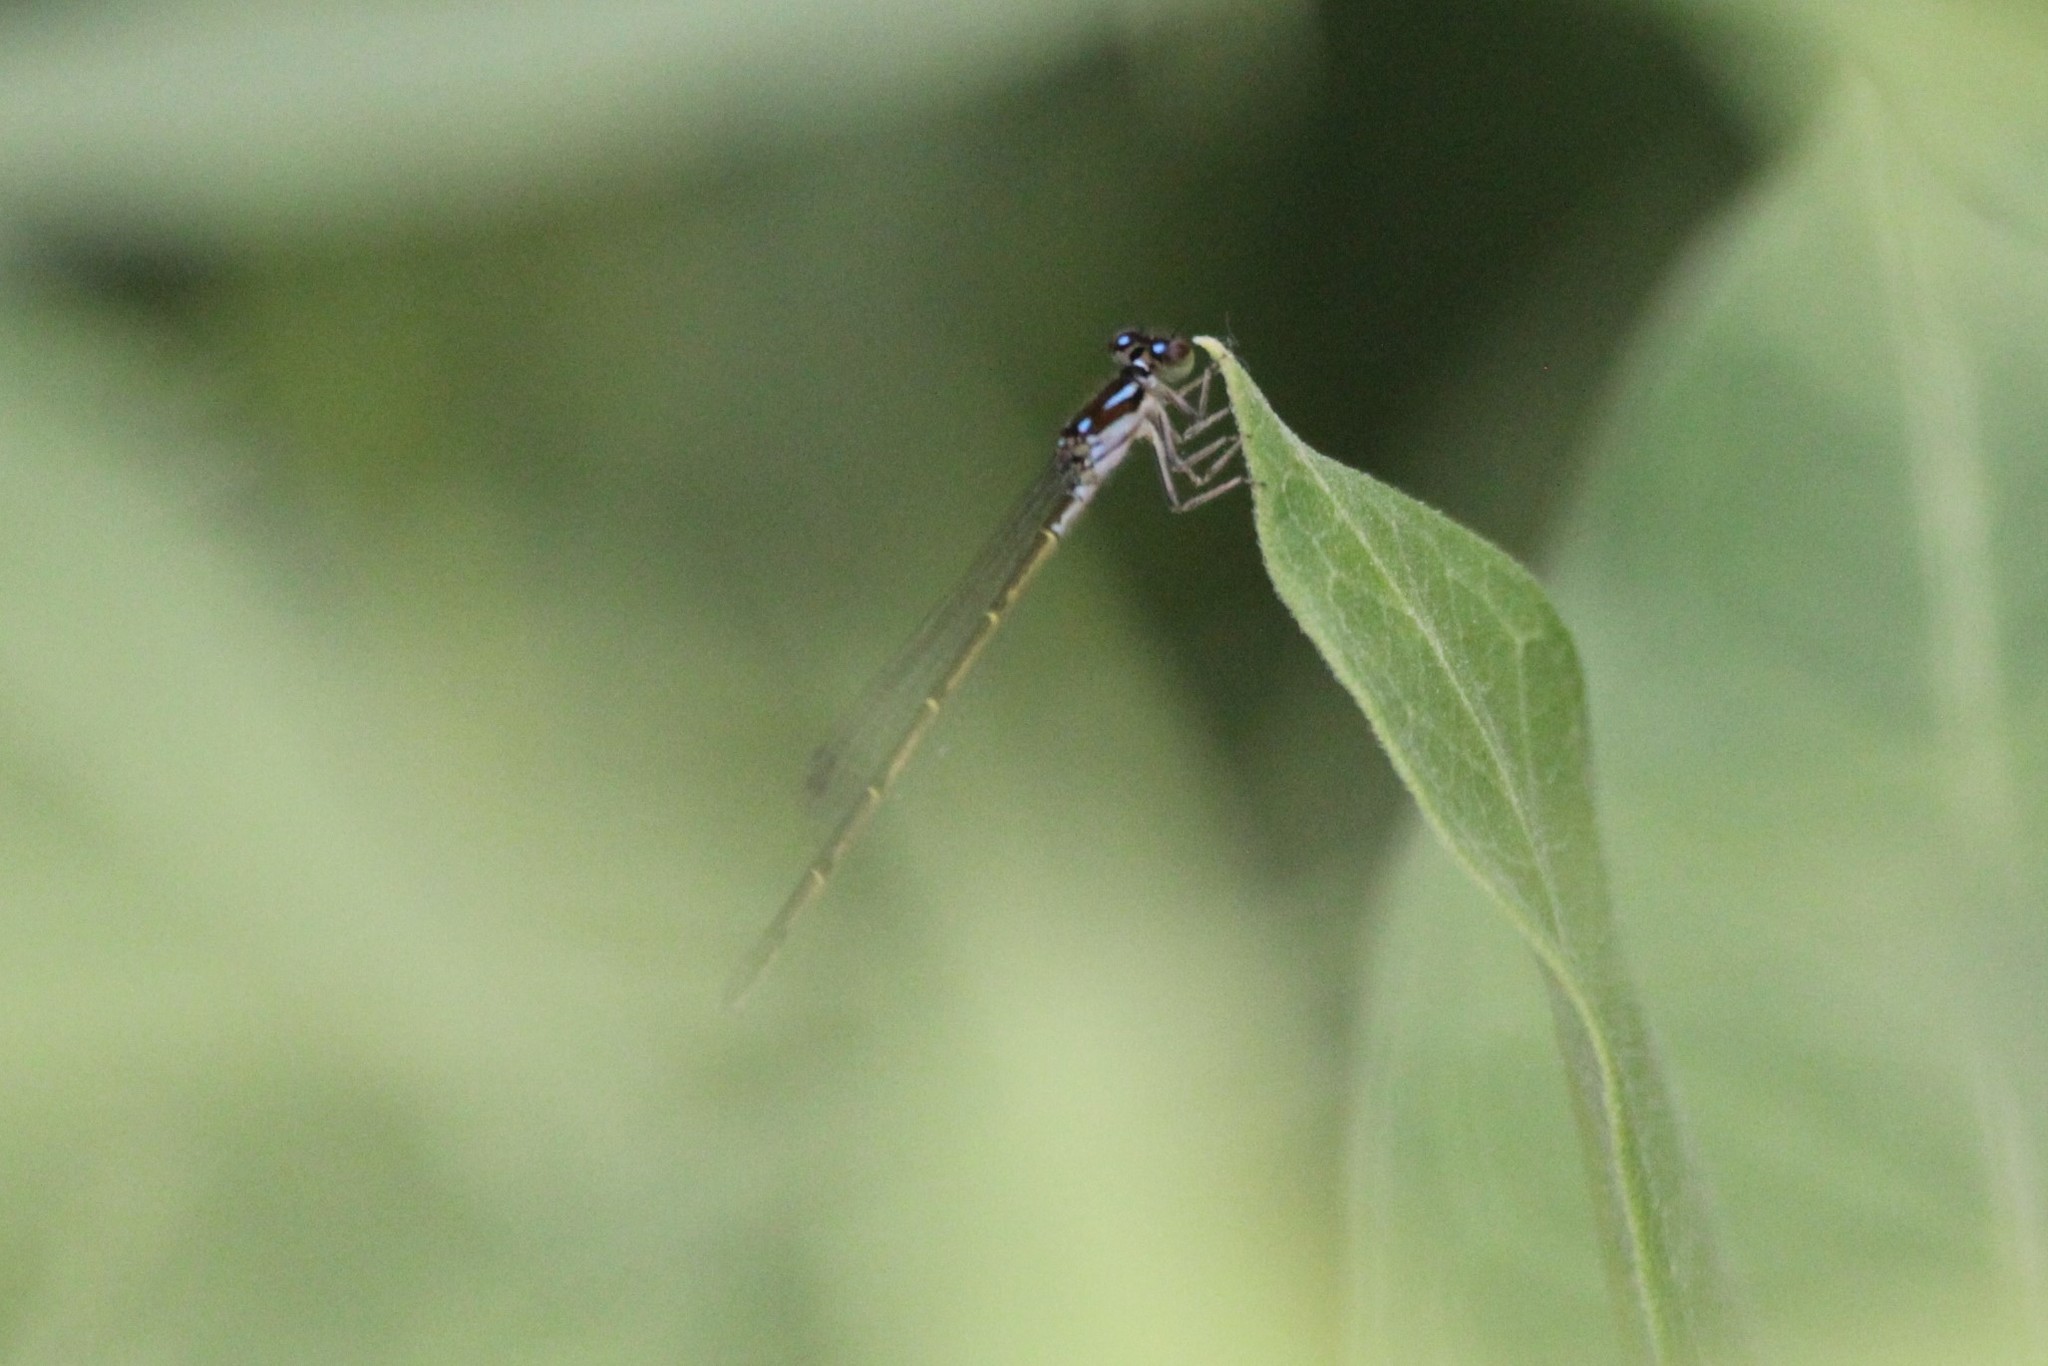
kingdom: Animalia
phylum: Arthropoda
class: Insecta
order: Odonata
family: Coenagrionidae
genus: Ischnura
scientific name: Ischnura posita
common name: Fragile forktail
